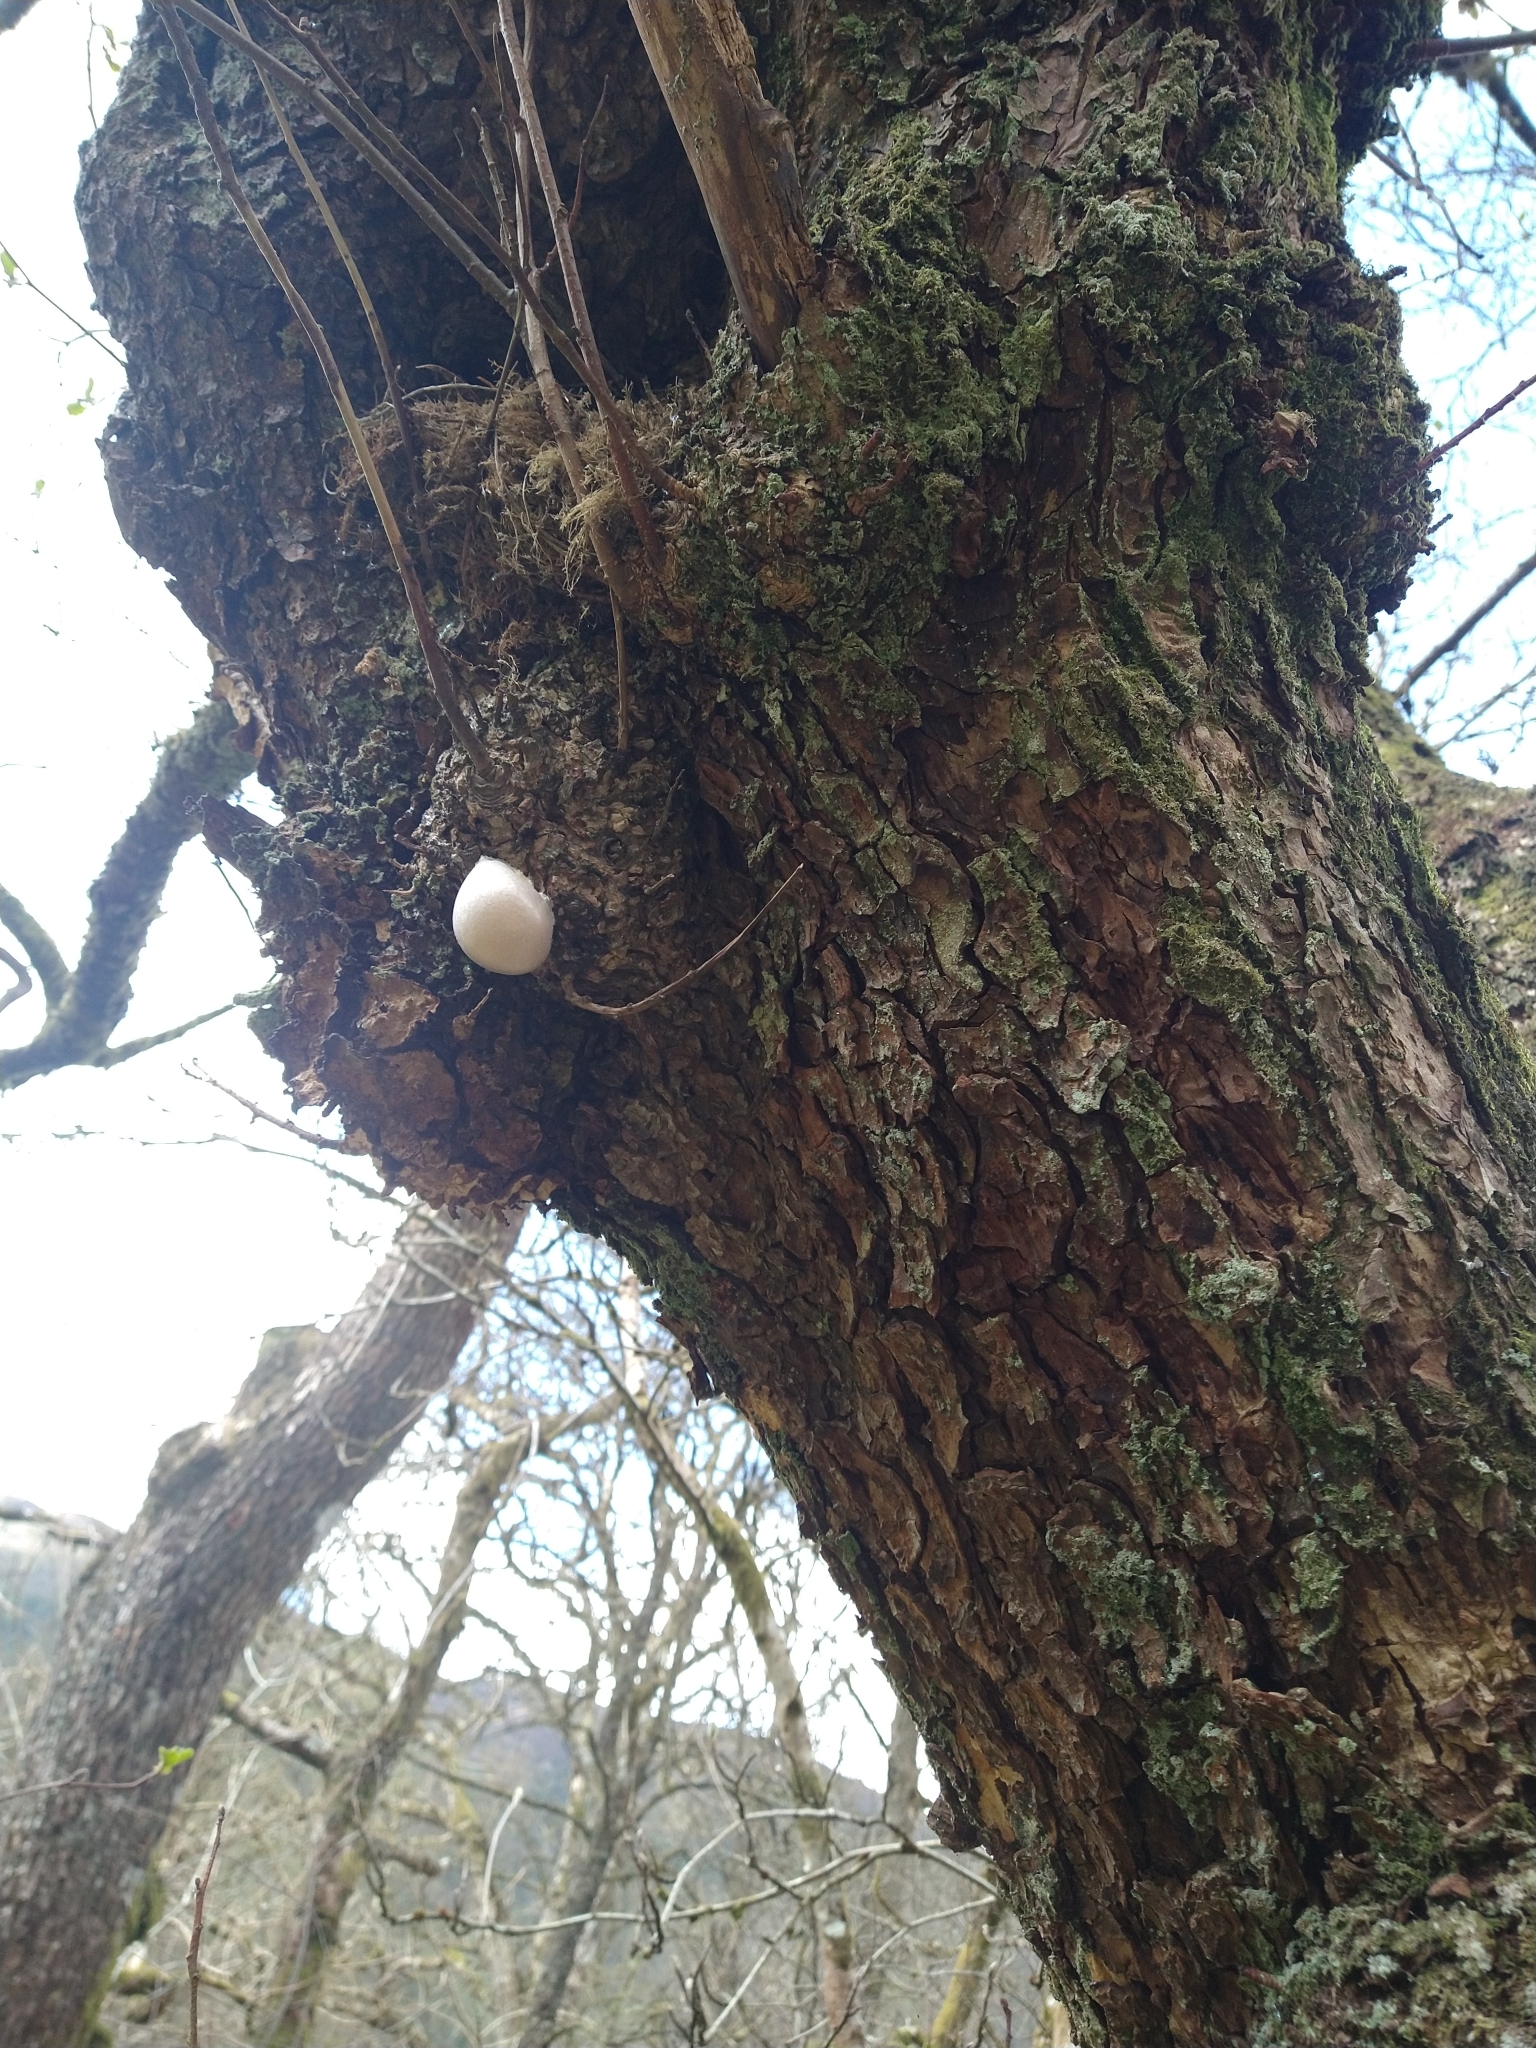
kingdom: Protozoa
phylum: Mycetozoa
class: Myxomycetes
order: Cribrariales
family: Tubiferaceae
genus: Reticularia
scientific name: Reticularia lycoperdon
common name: False puffball
